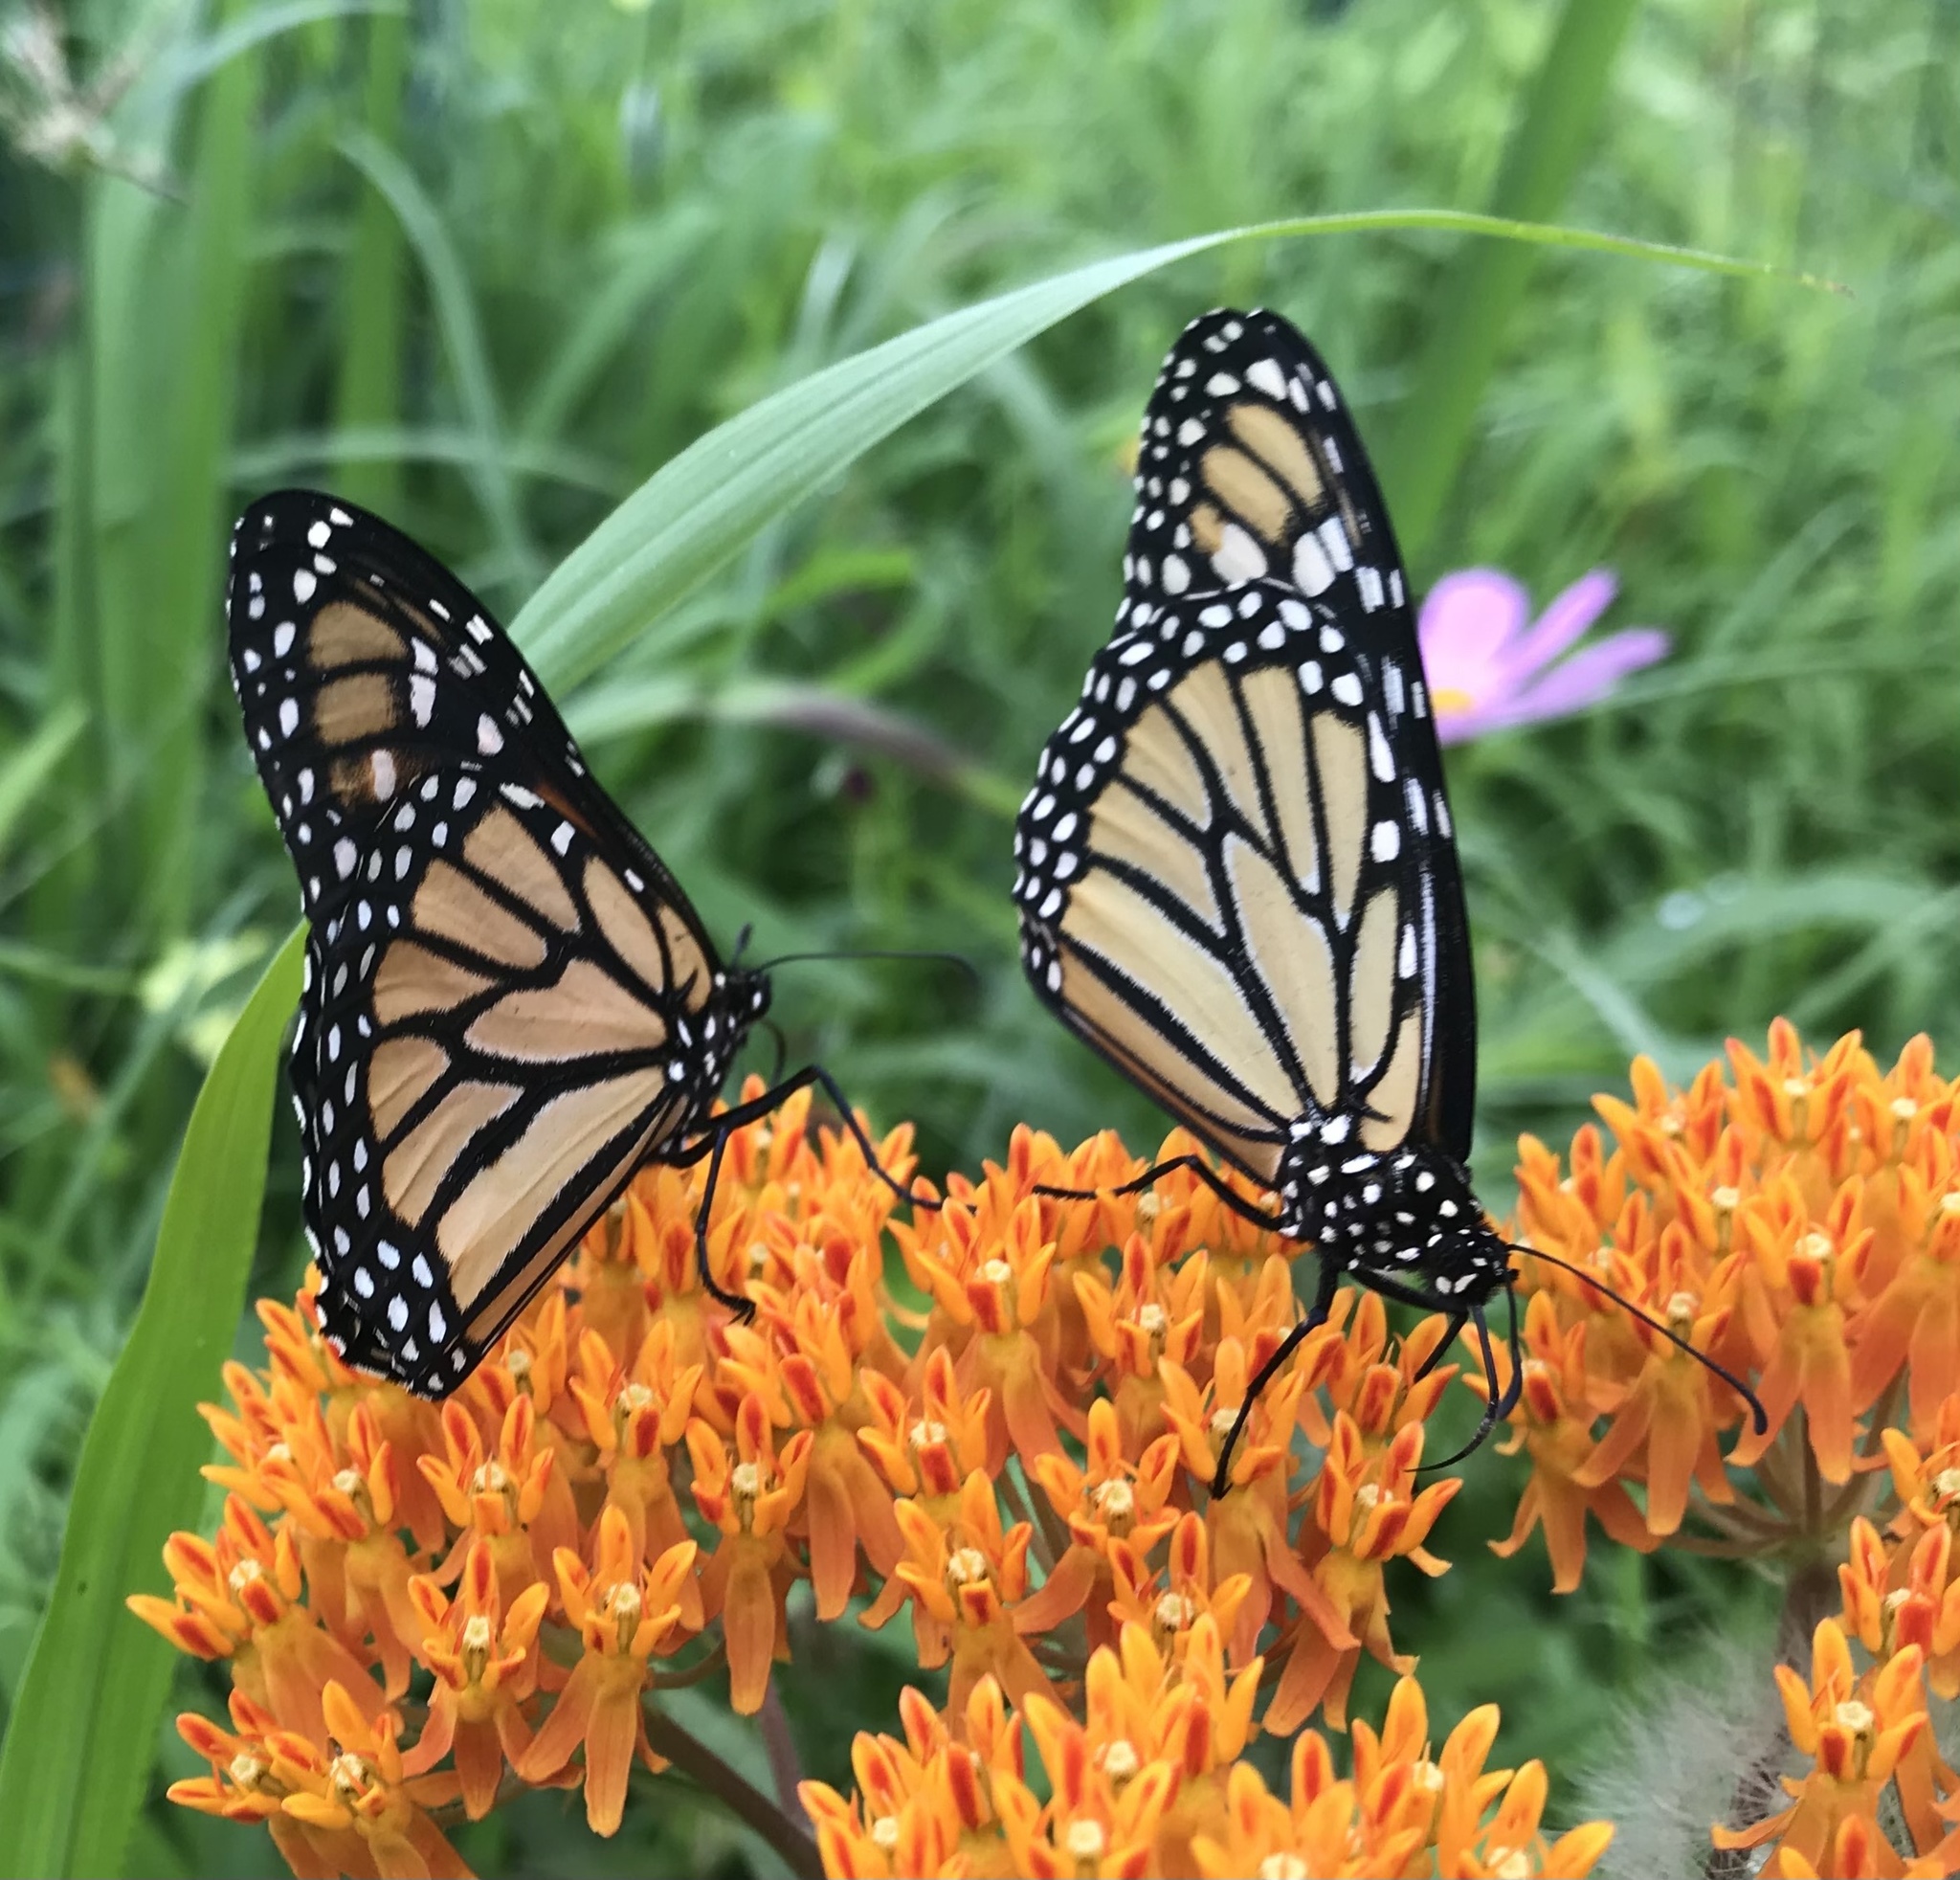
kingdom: Animalia
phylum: Arthropoda
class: Insecta
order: Lepidoptera
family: Nymphalidae
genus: Danaus
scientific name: Danaus plexippus
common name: Monarch
